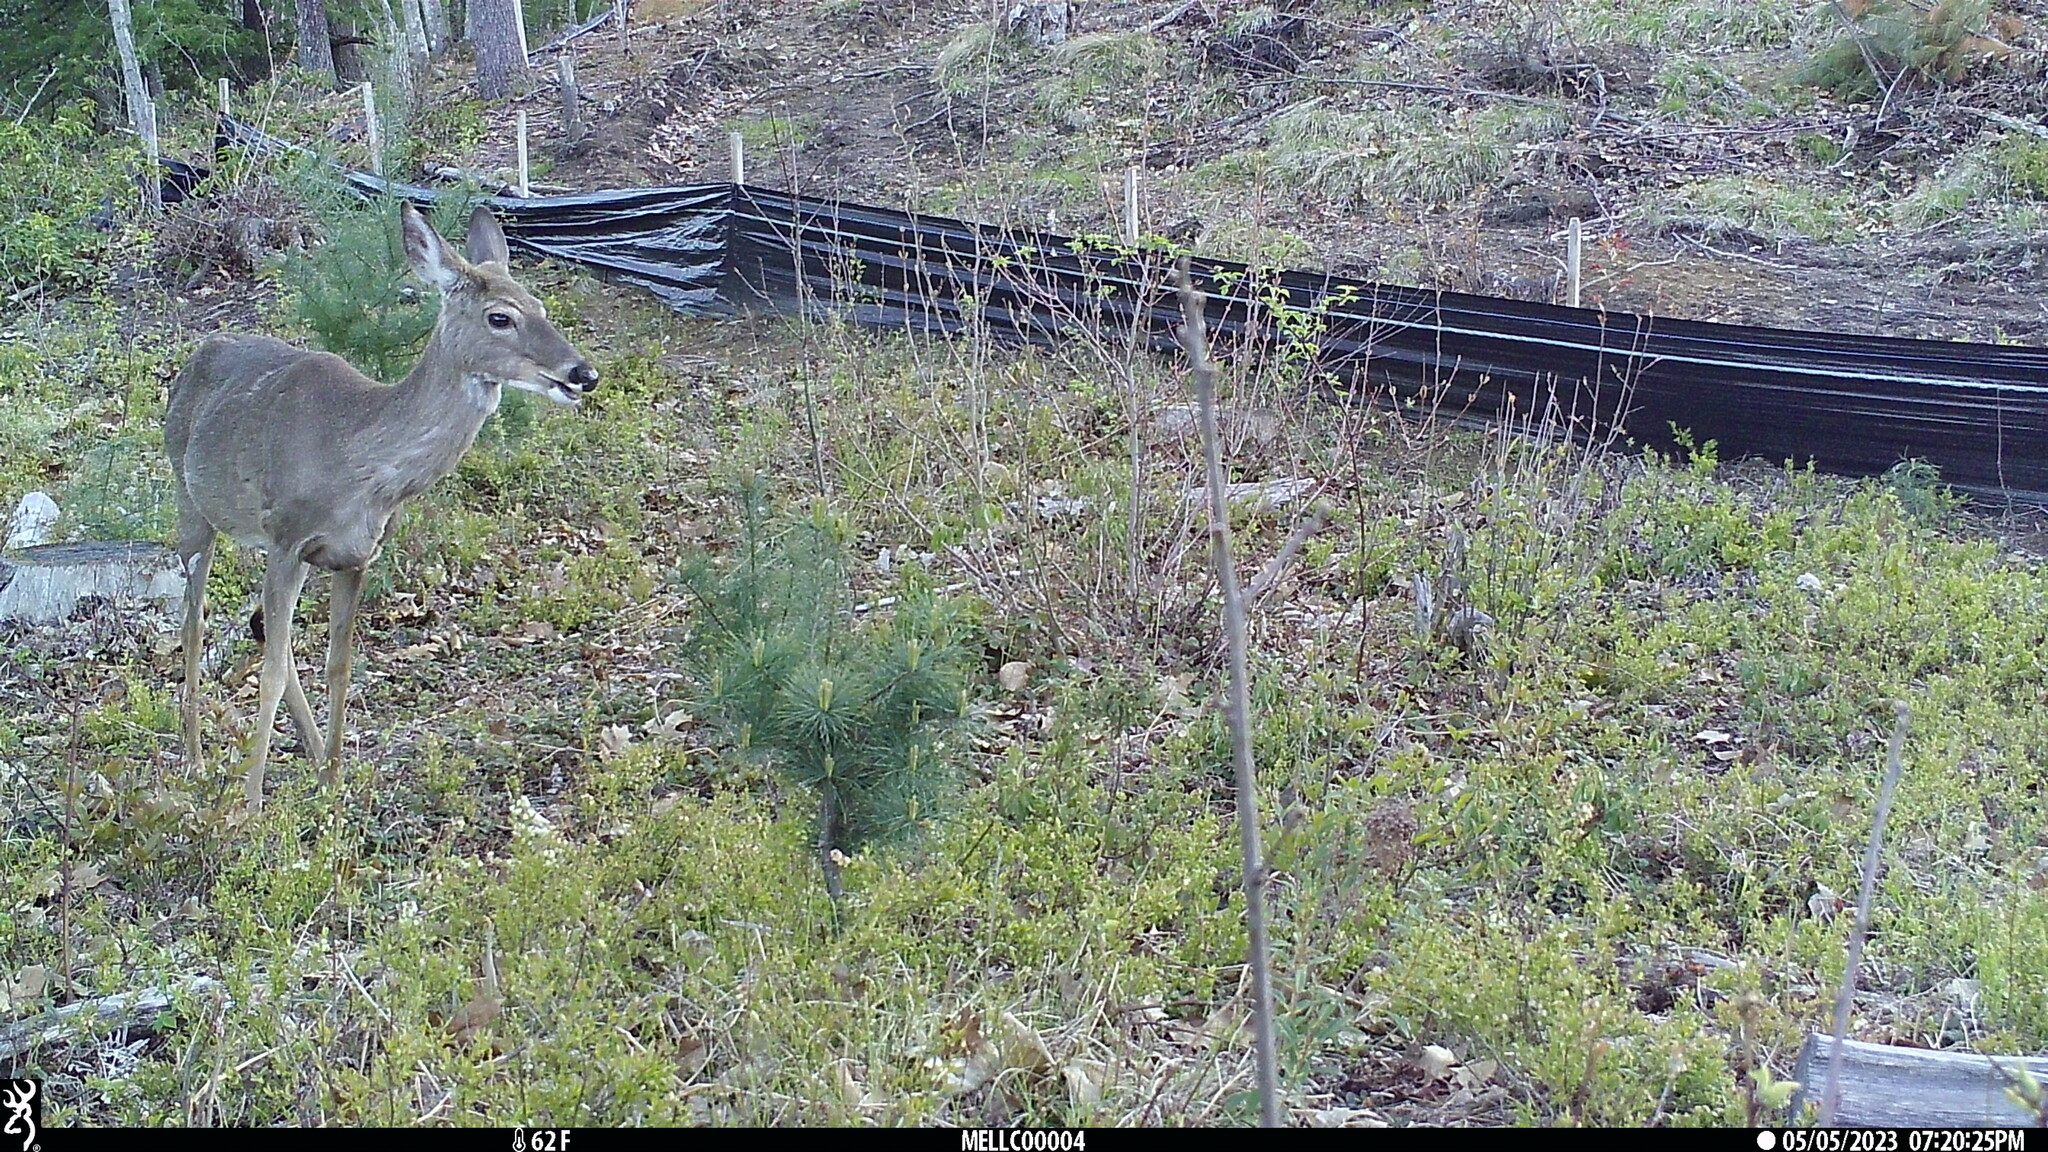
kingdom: Animalia
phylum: Chordata
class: Mammalia
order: Artiodactyla
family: Cervidae
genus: Odocoileus
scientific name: Odocoileus virginianus
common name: White-tailed deer
